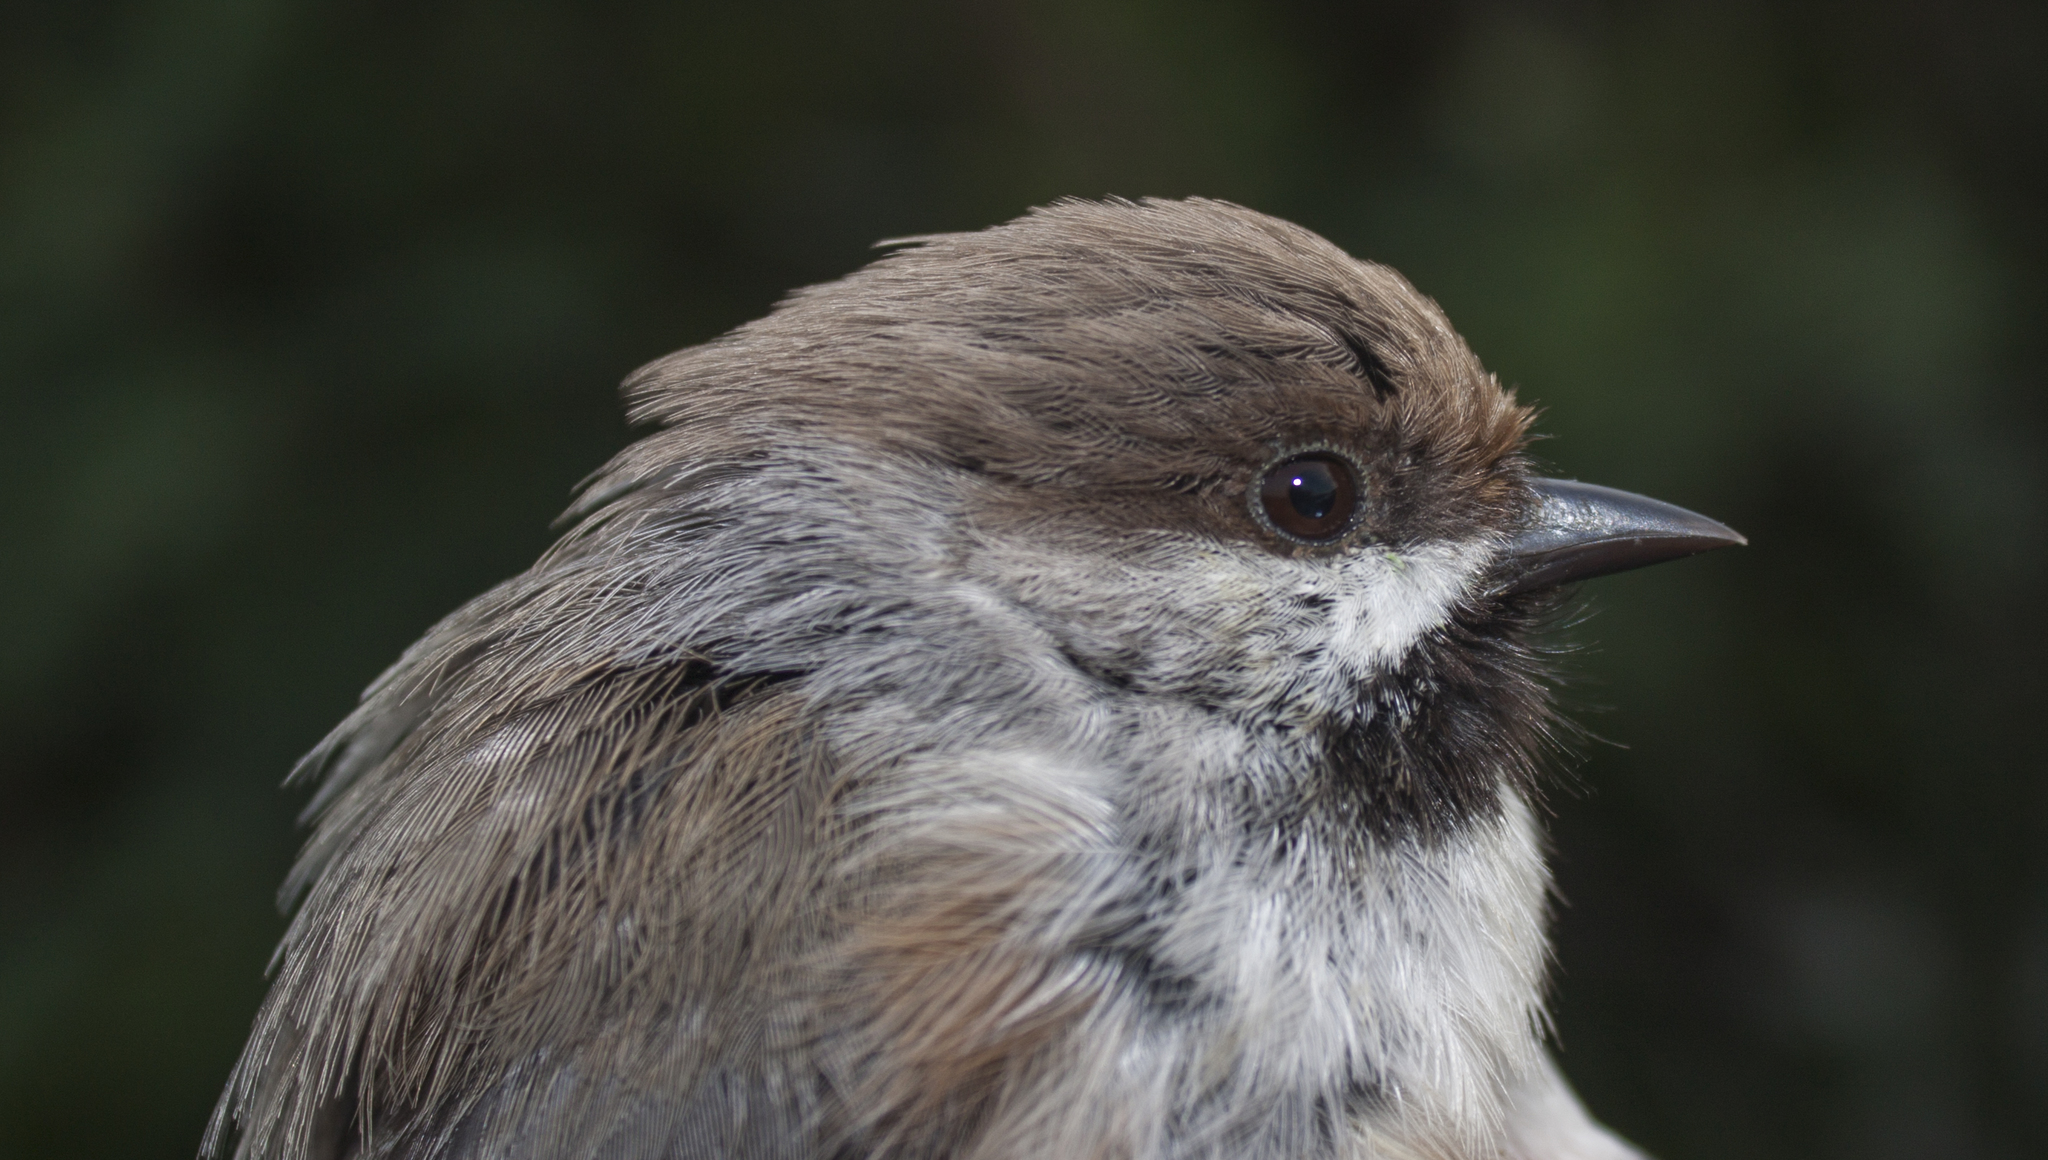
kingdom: Animalia
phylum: Chordata
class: Aves
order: Passeriformes
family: Paridae
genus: Poecile
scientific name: Poecile hudsonicus
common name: Boreal chickadee
